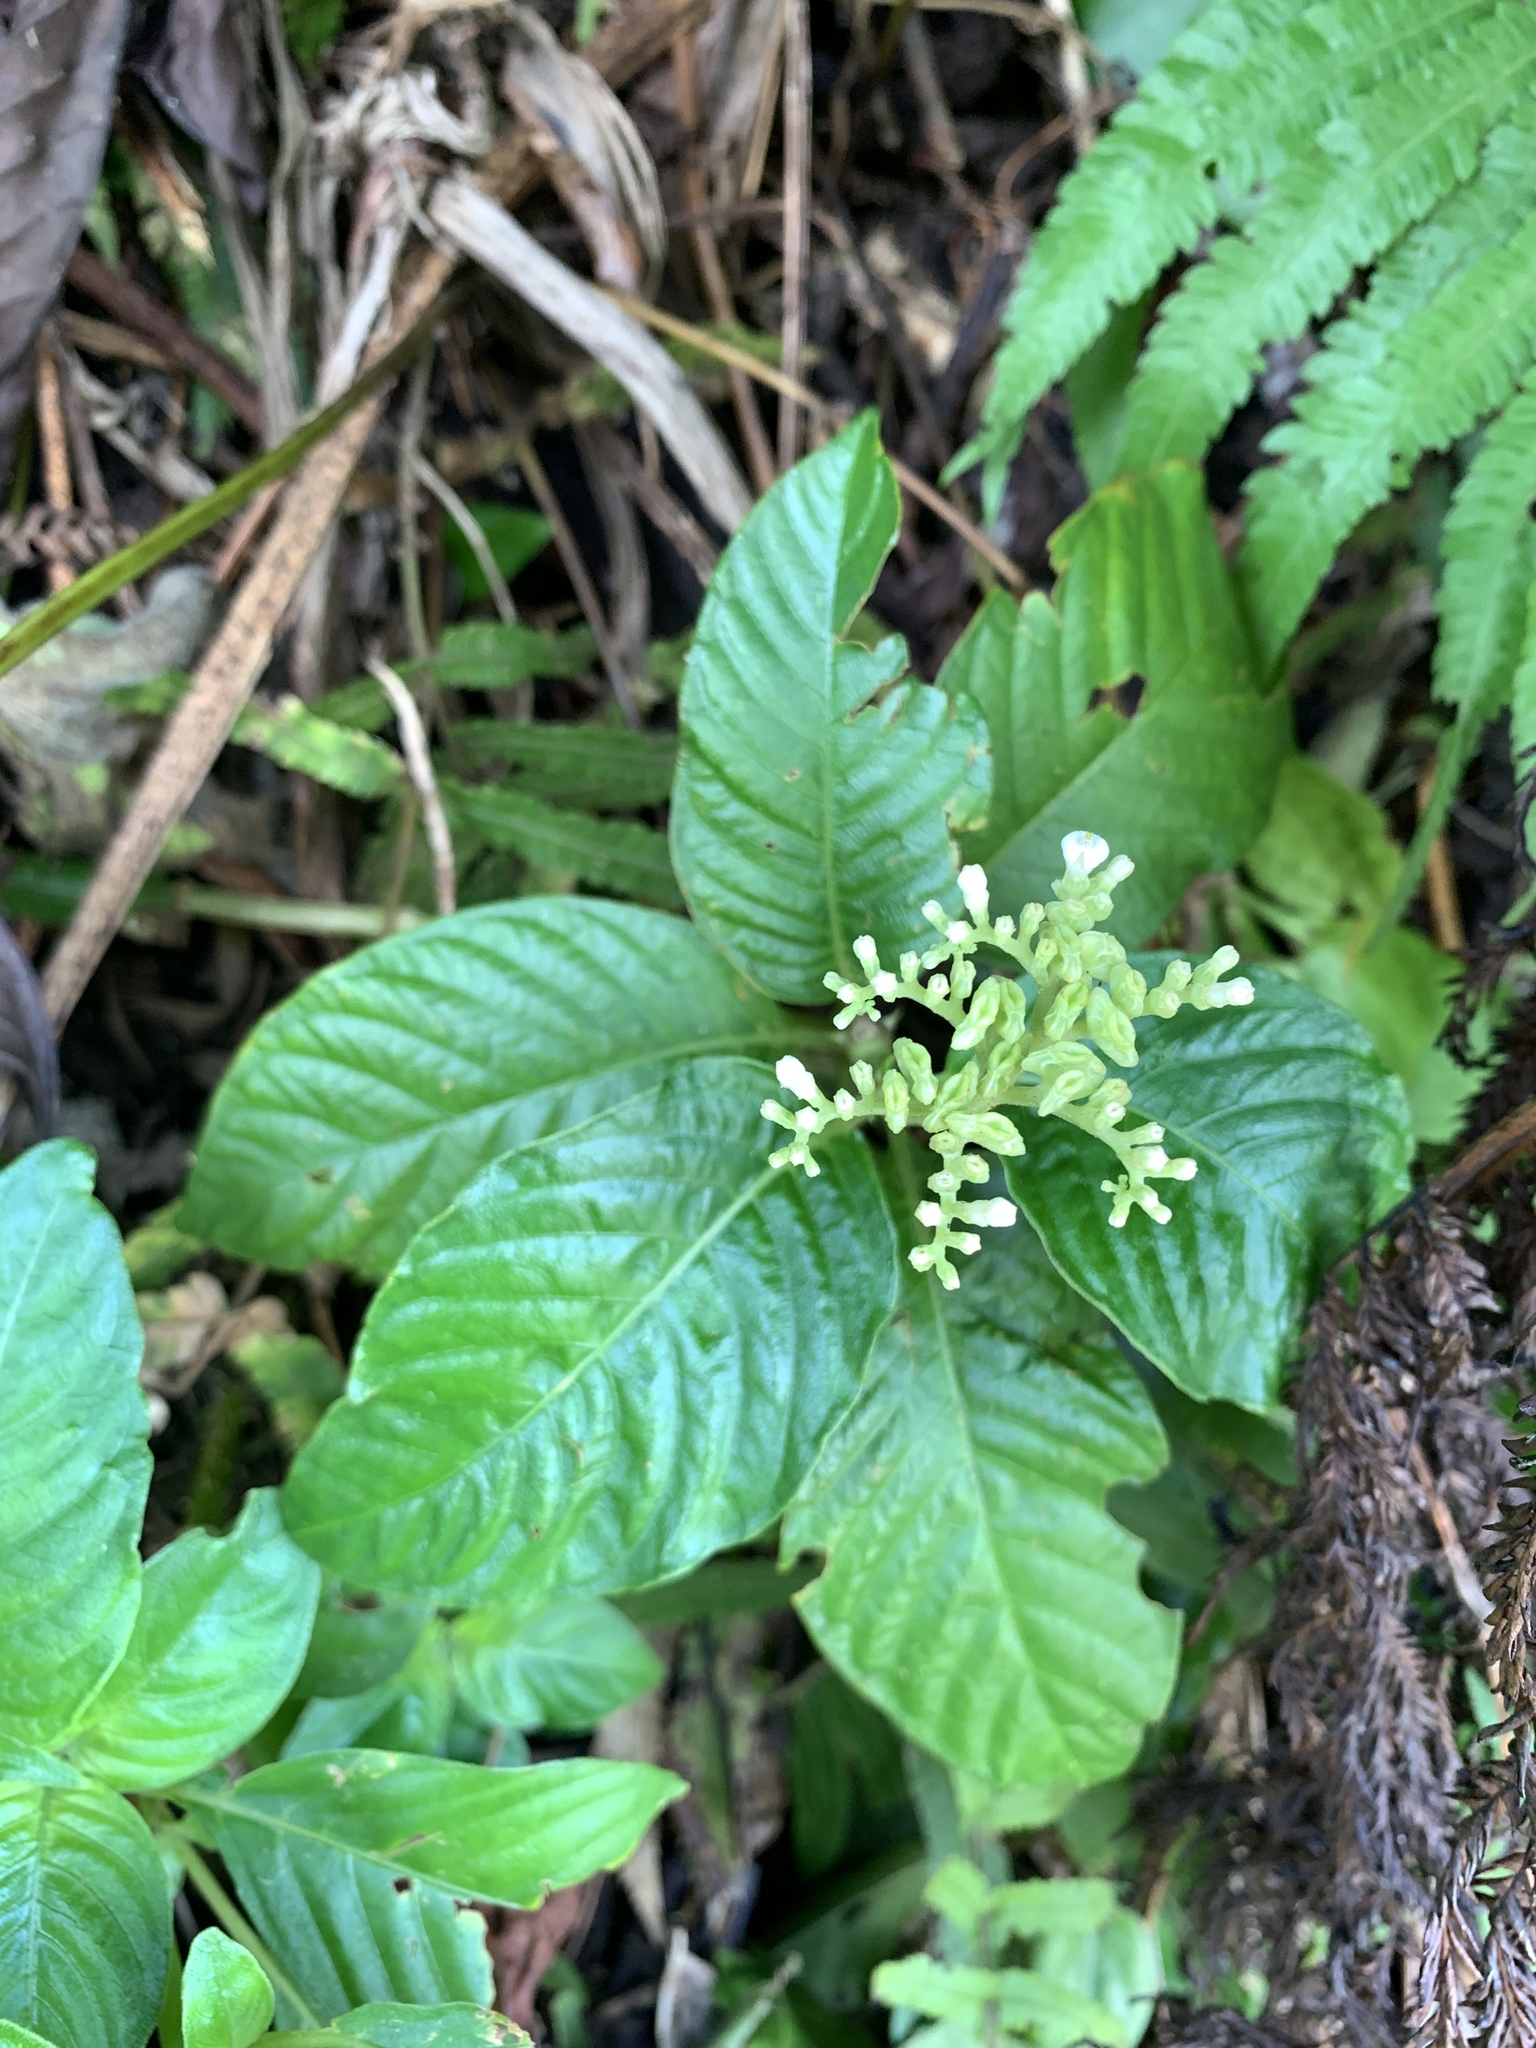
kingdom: Plantae
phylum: Tracheophyta
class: Magnoliopsida
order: Gentianales
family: Rubiaceae
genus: Ophiorrhiza
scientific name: Ophiorrhiza kuroiwae
